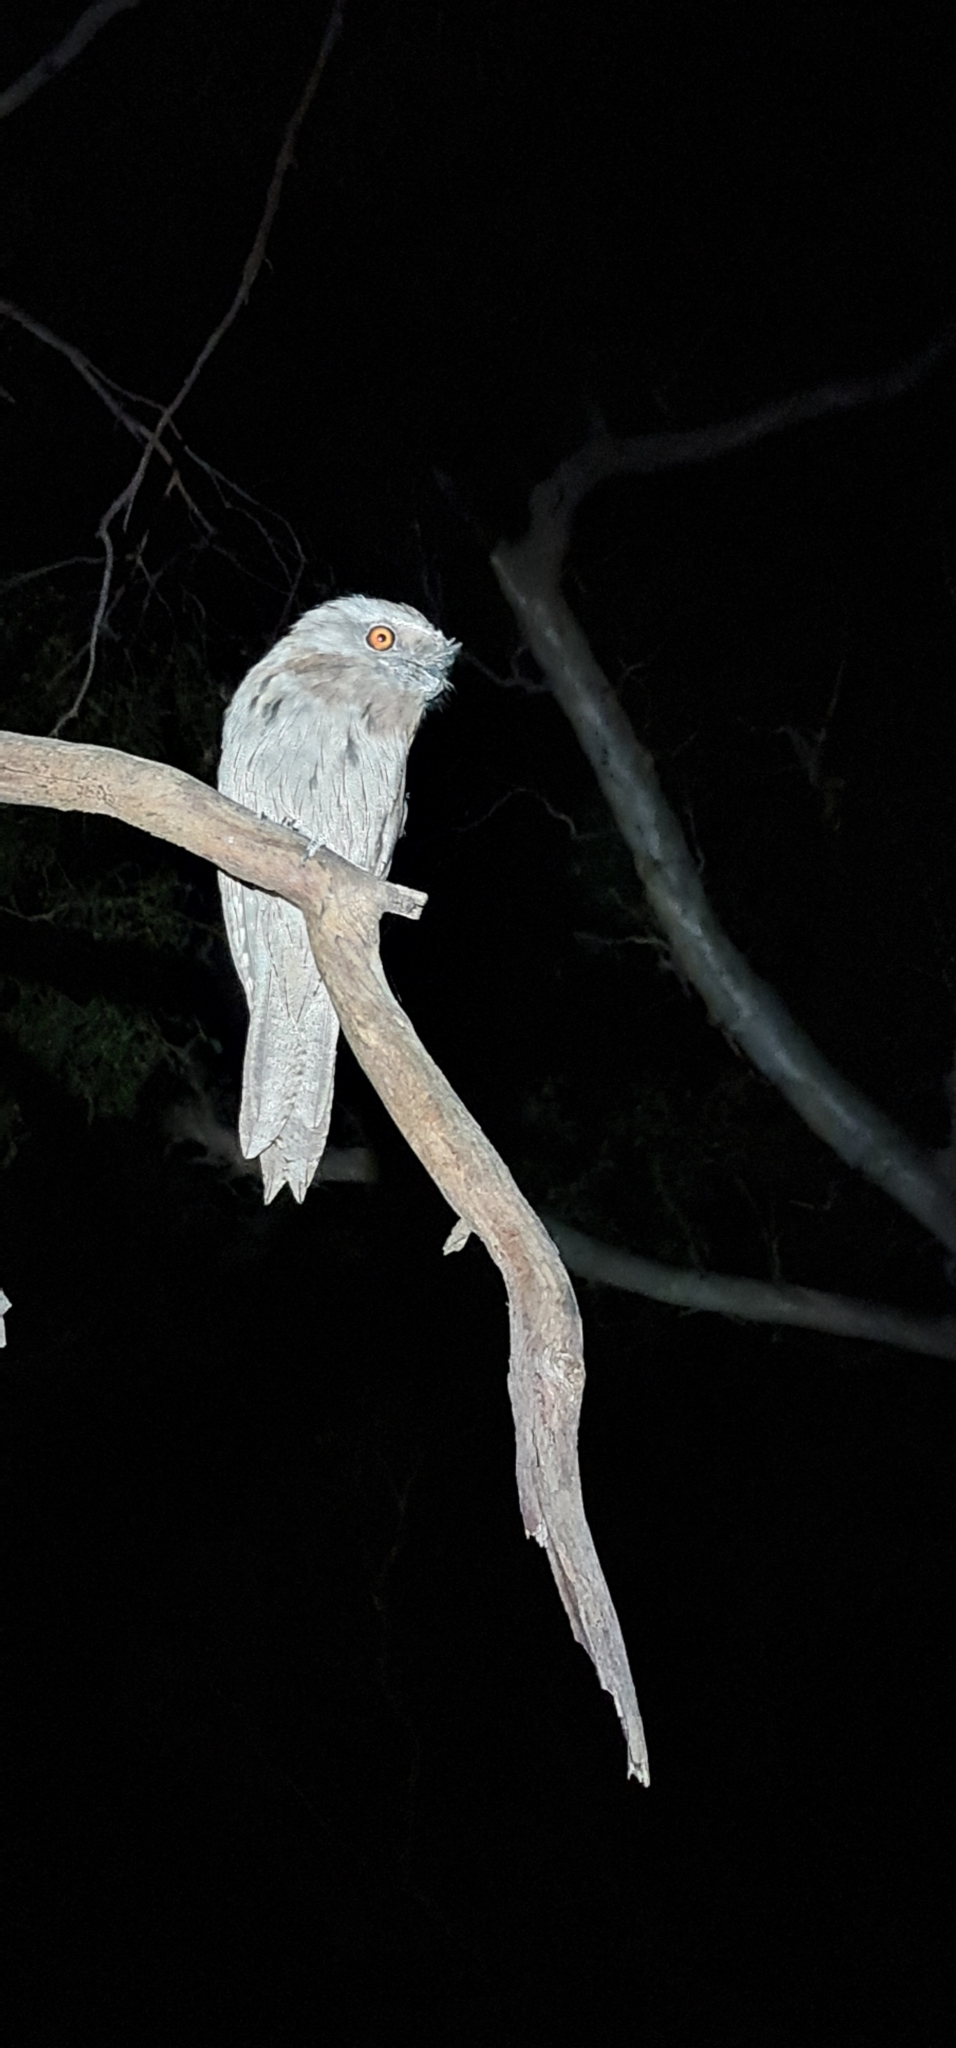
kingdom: Animalia
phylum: Chordata
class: Aves
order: Caprimulgiformes
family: Podargidae
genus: Podargus
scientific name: Podargus strigoides
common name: Tawny frogmouth
